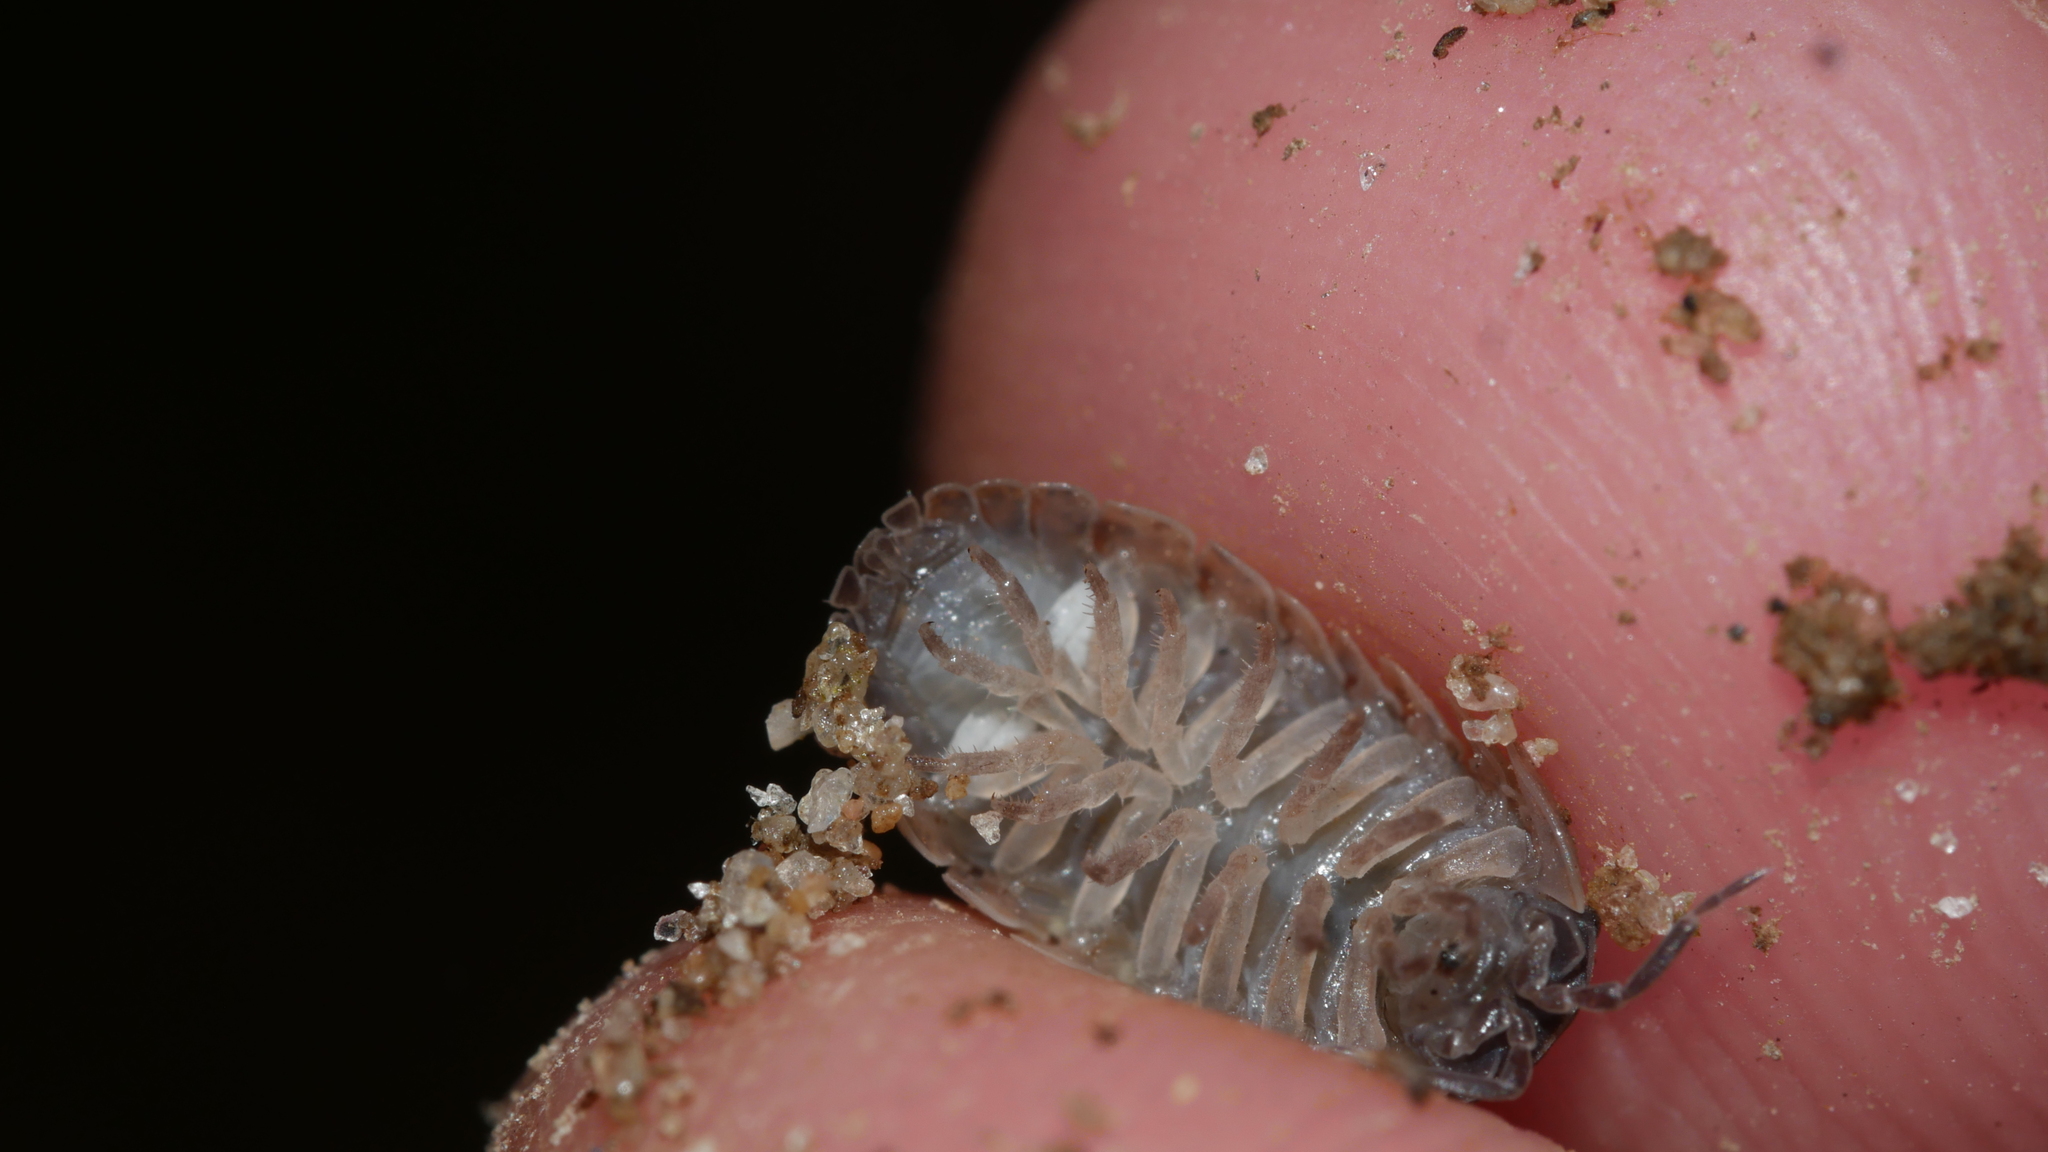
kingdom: Animalia
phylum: Arthropoda
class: Malacostraca
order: Isopoda
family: Armadillidiidae
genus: Armadillidium
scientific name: Armadillidium vulgare
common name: Common pill woodlouse
